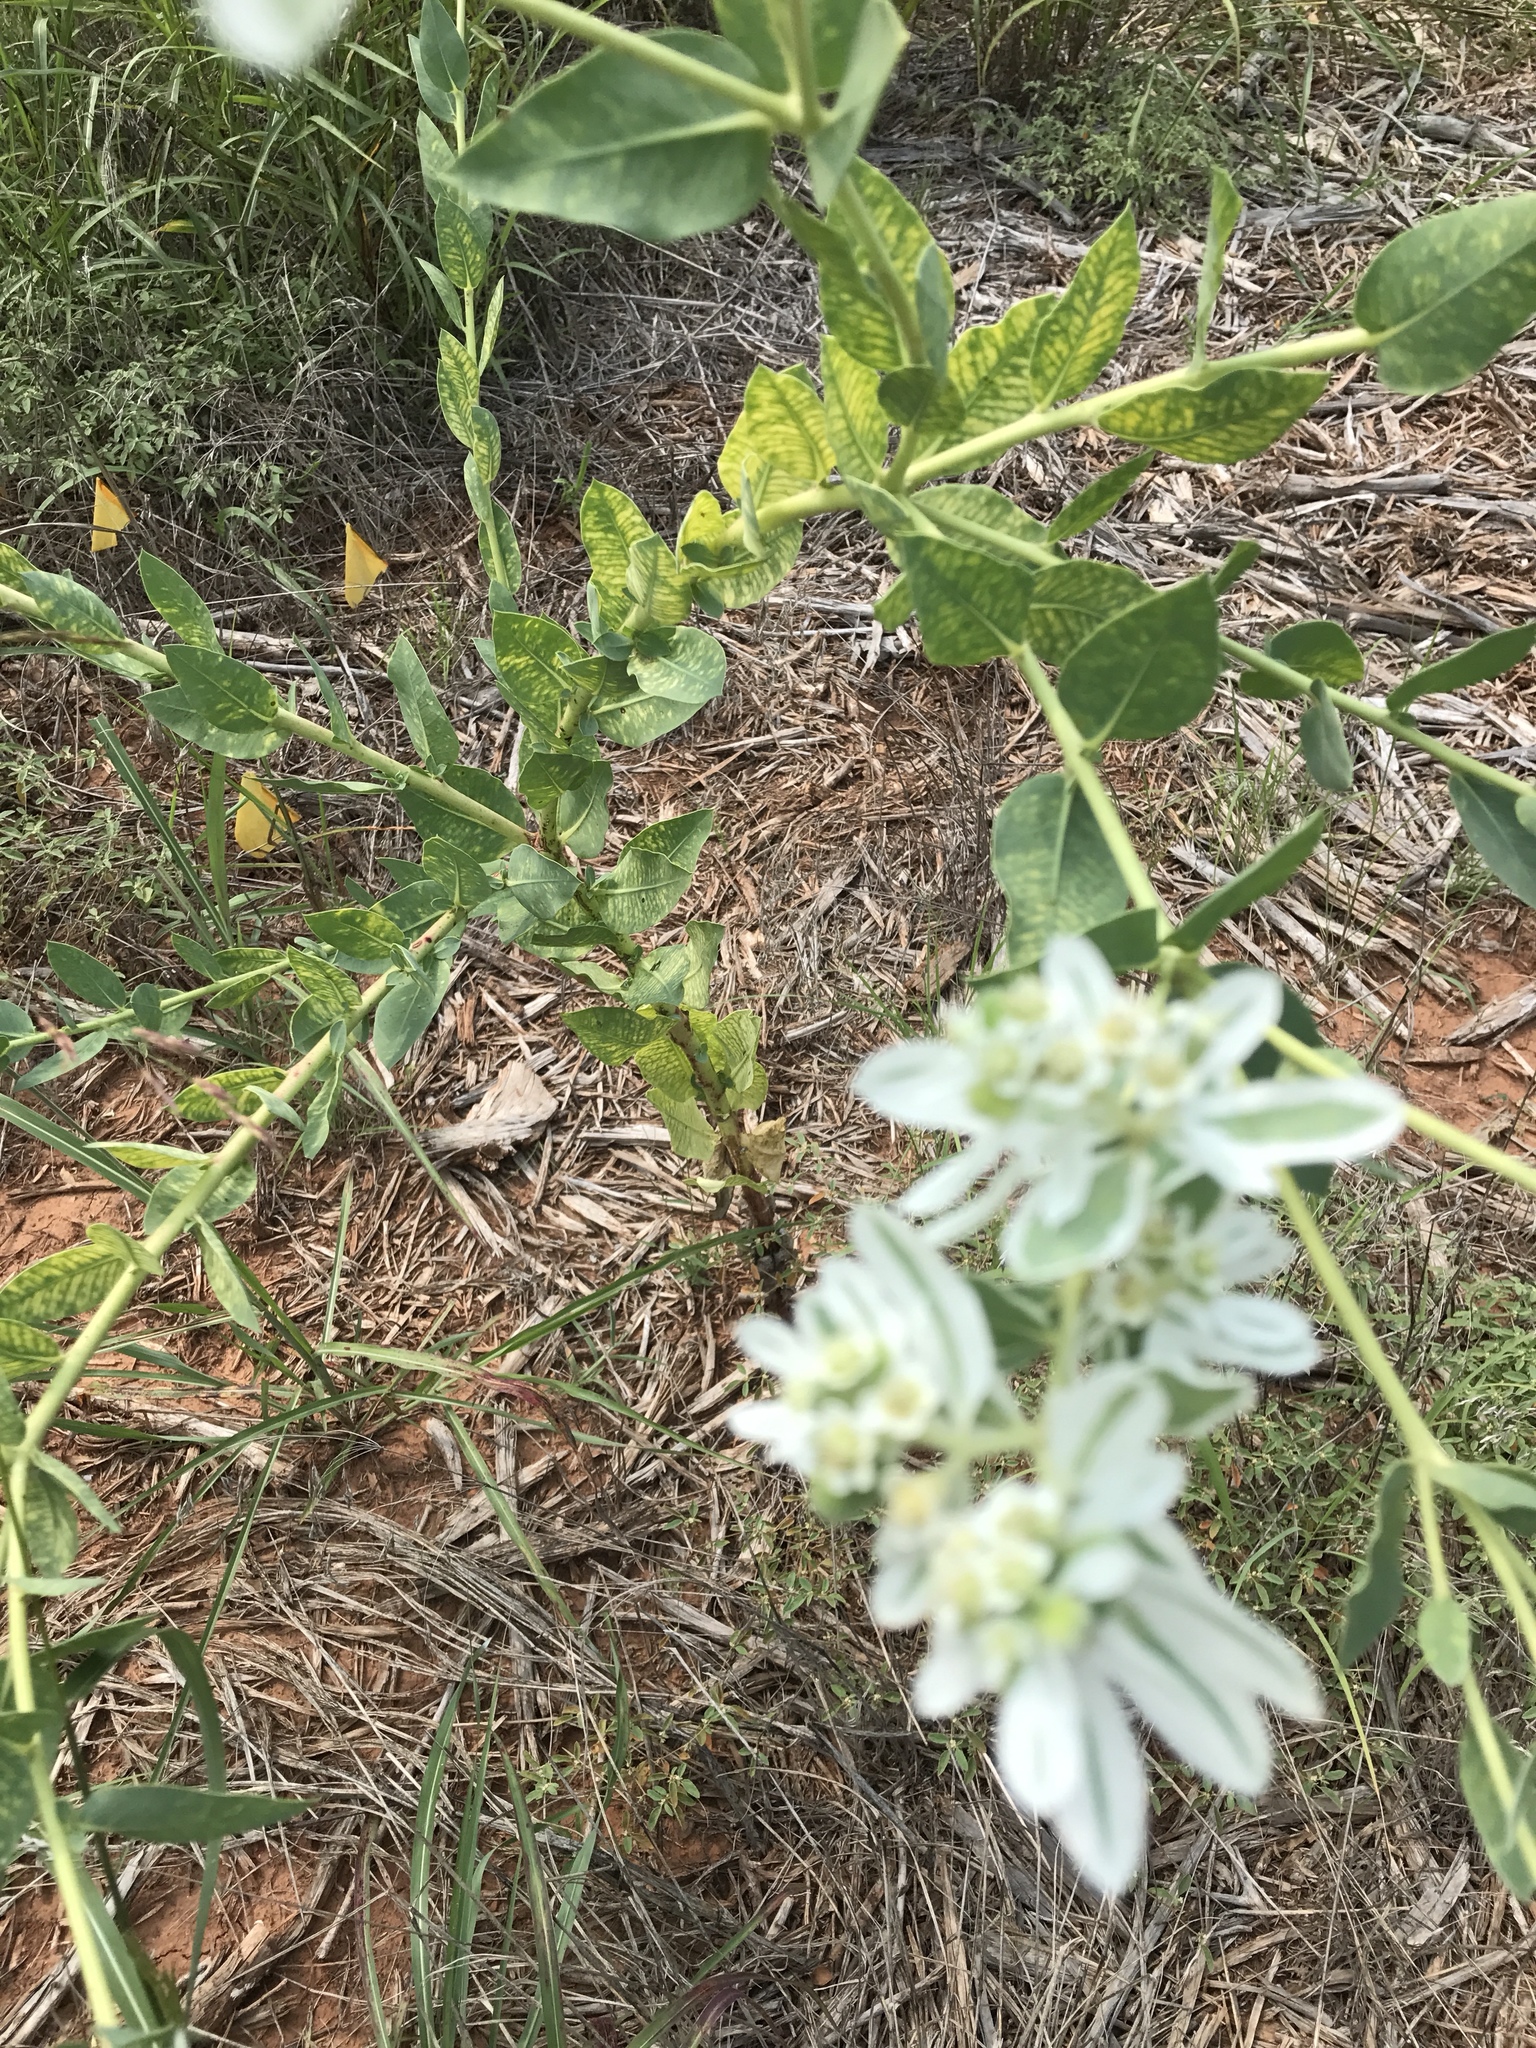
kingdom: Plantae
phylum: Tracheophyta
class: Magnoliopsida
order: Malpighiales
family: Euphorbiaceae
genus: Euphorbia
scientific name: Euphorbia marginata
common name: Ghostweed
